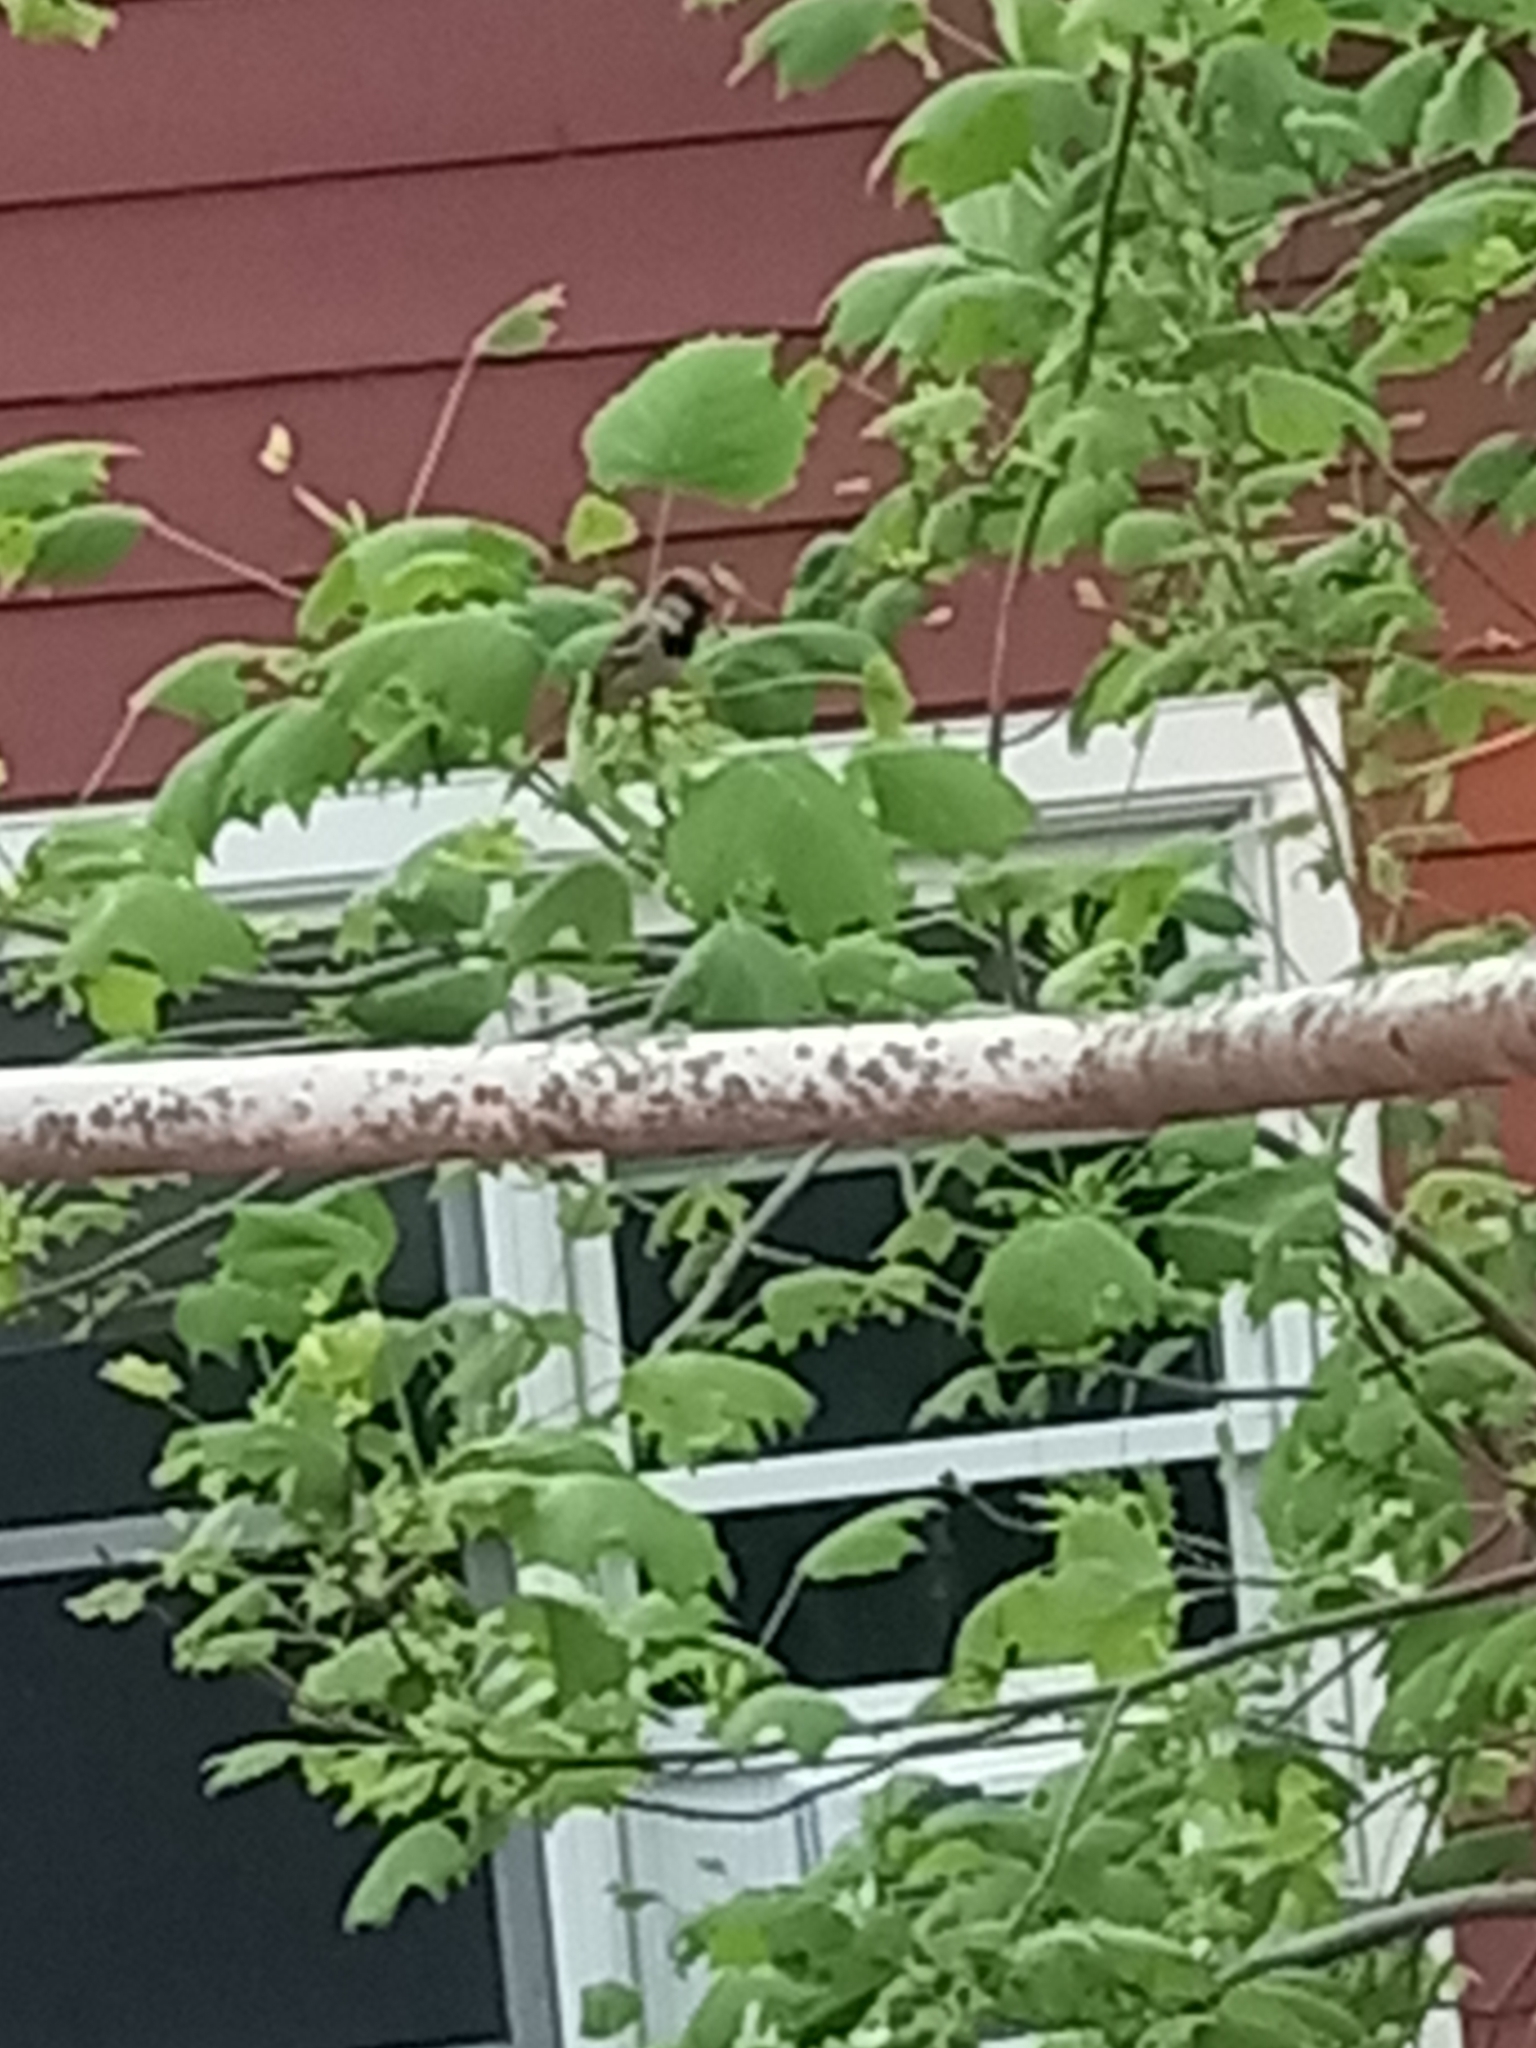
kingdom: Animalia
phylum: Chordata
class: Aves
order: Passeriformes
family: Passeridae
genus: Passer
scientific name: Passer domesticus
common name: House sparrow
